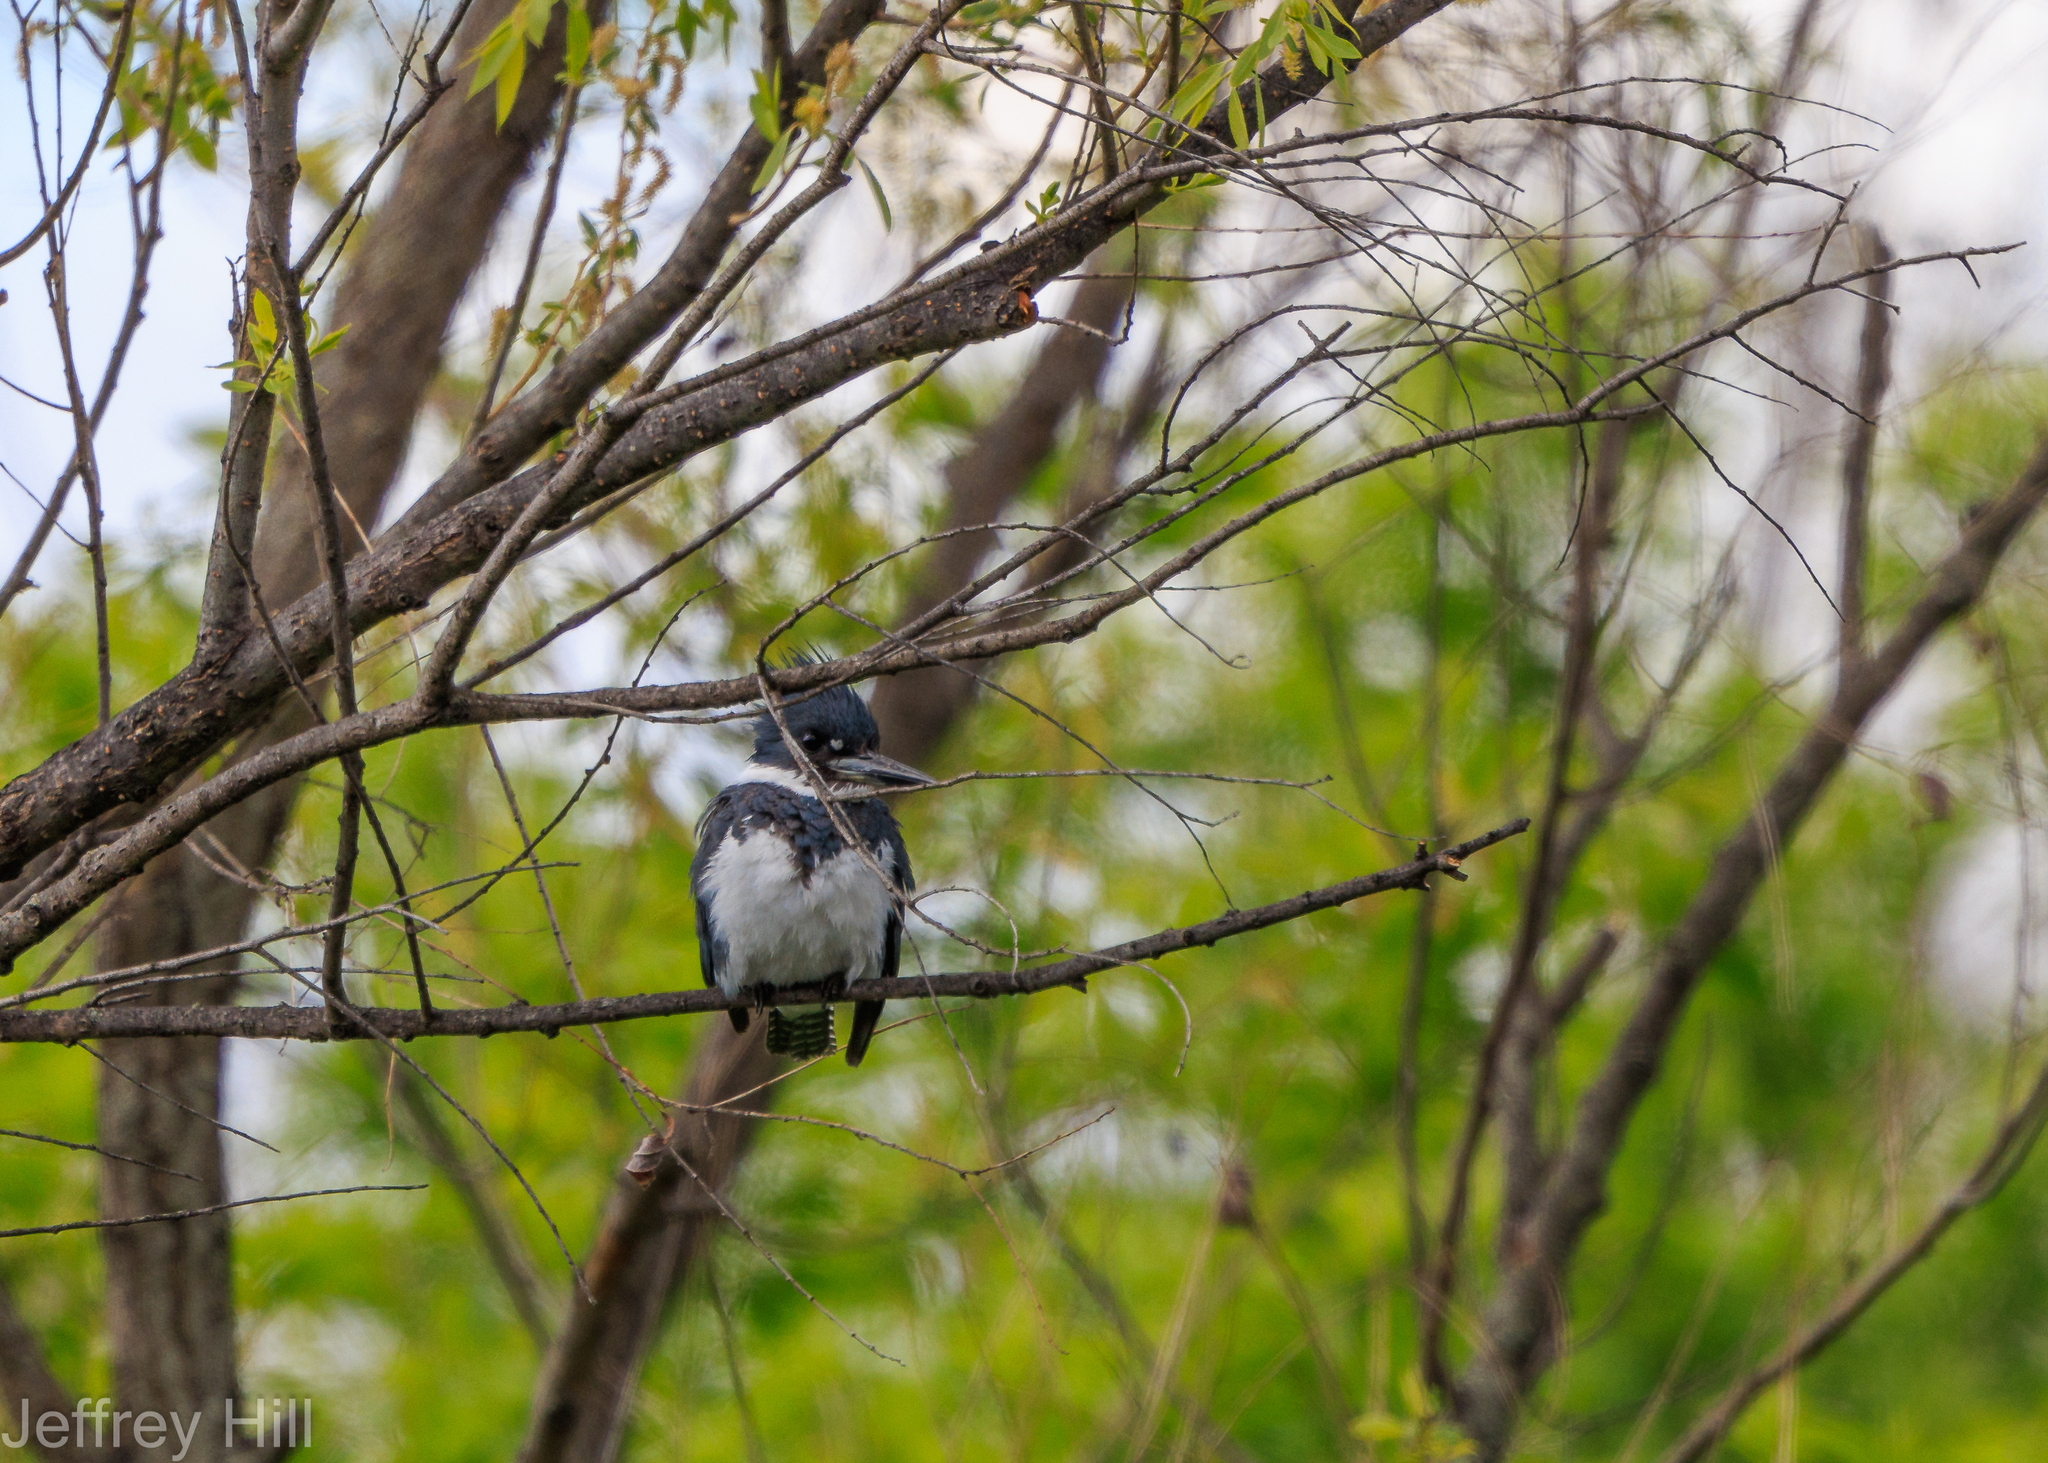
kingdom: Animalia
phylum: Chordata
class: Aves
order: Coraciiformes
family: Alcedinidae
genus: Megaceryle
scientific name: Megaceryle alcyon
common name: Belted kingfisher
